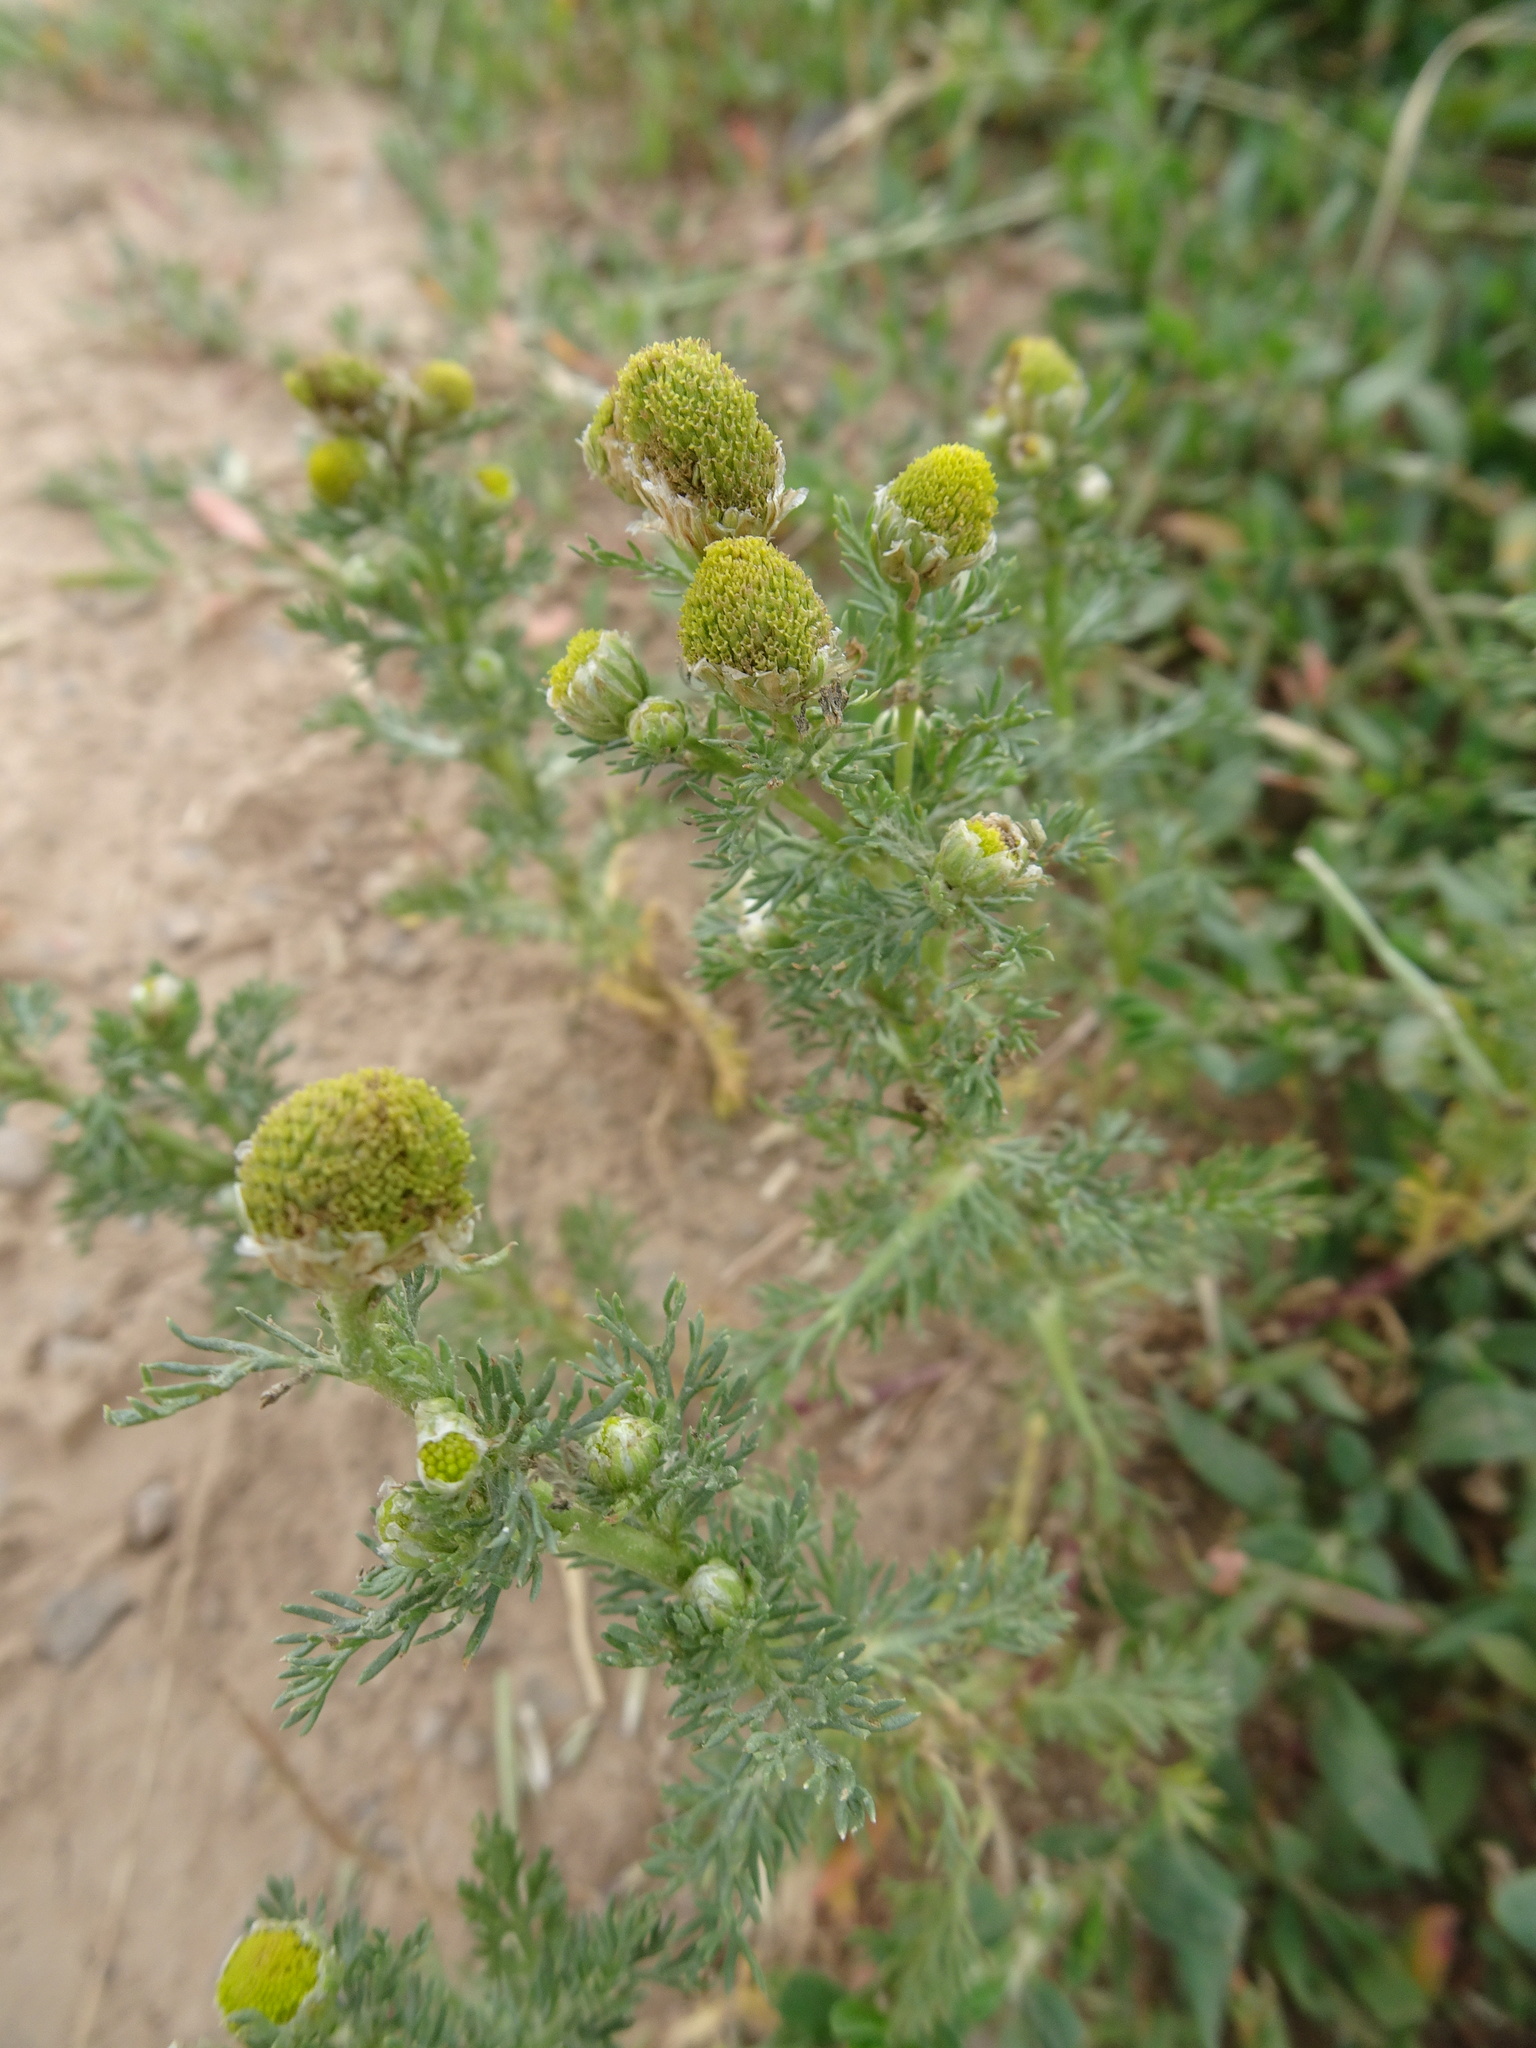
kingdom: Plantae
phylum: Tracheophyta
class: Magnoliopsida
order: Asterales
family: Asteraceae
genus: Matricaria
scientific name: Matricaria discoidea
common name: Disc mayweed
